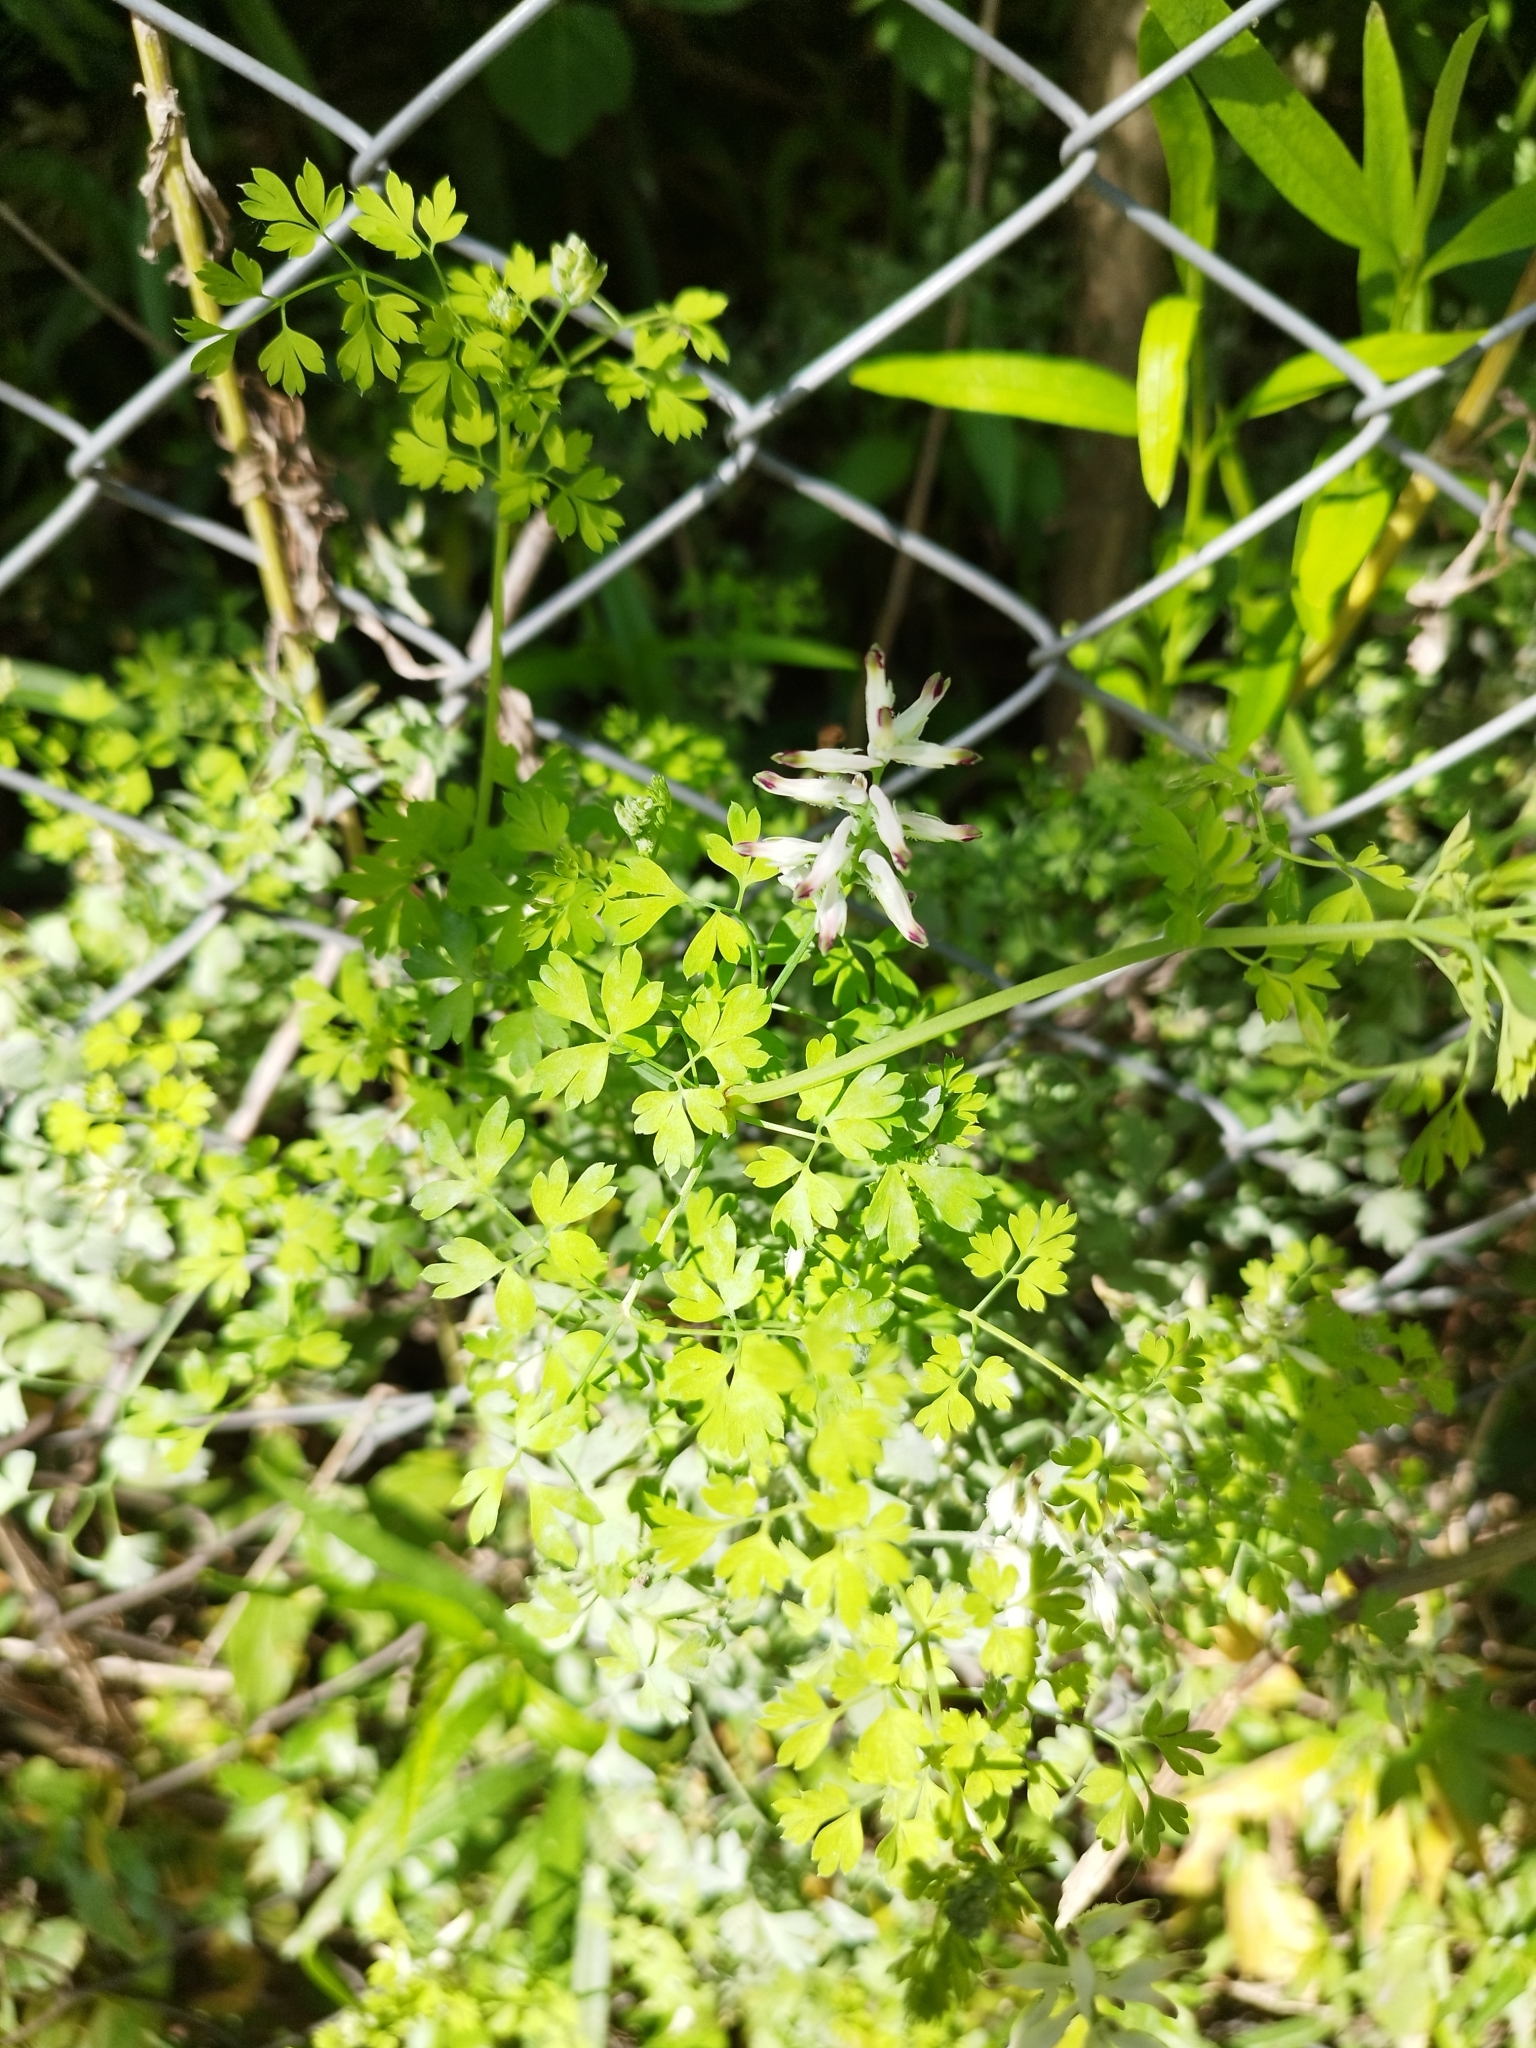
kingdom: Plantae
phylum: Tracheophyta
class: Magnoliopsida
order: Ranunculales
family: Papaveraceae
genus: Fumaria
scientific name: Fumaria capreolata
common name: White ramping-fumitory
